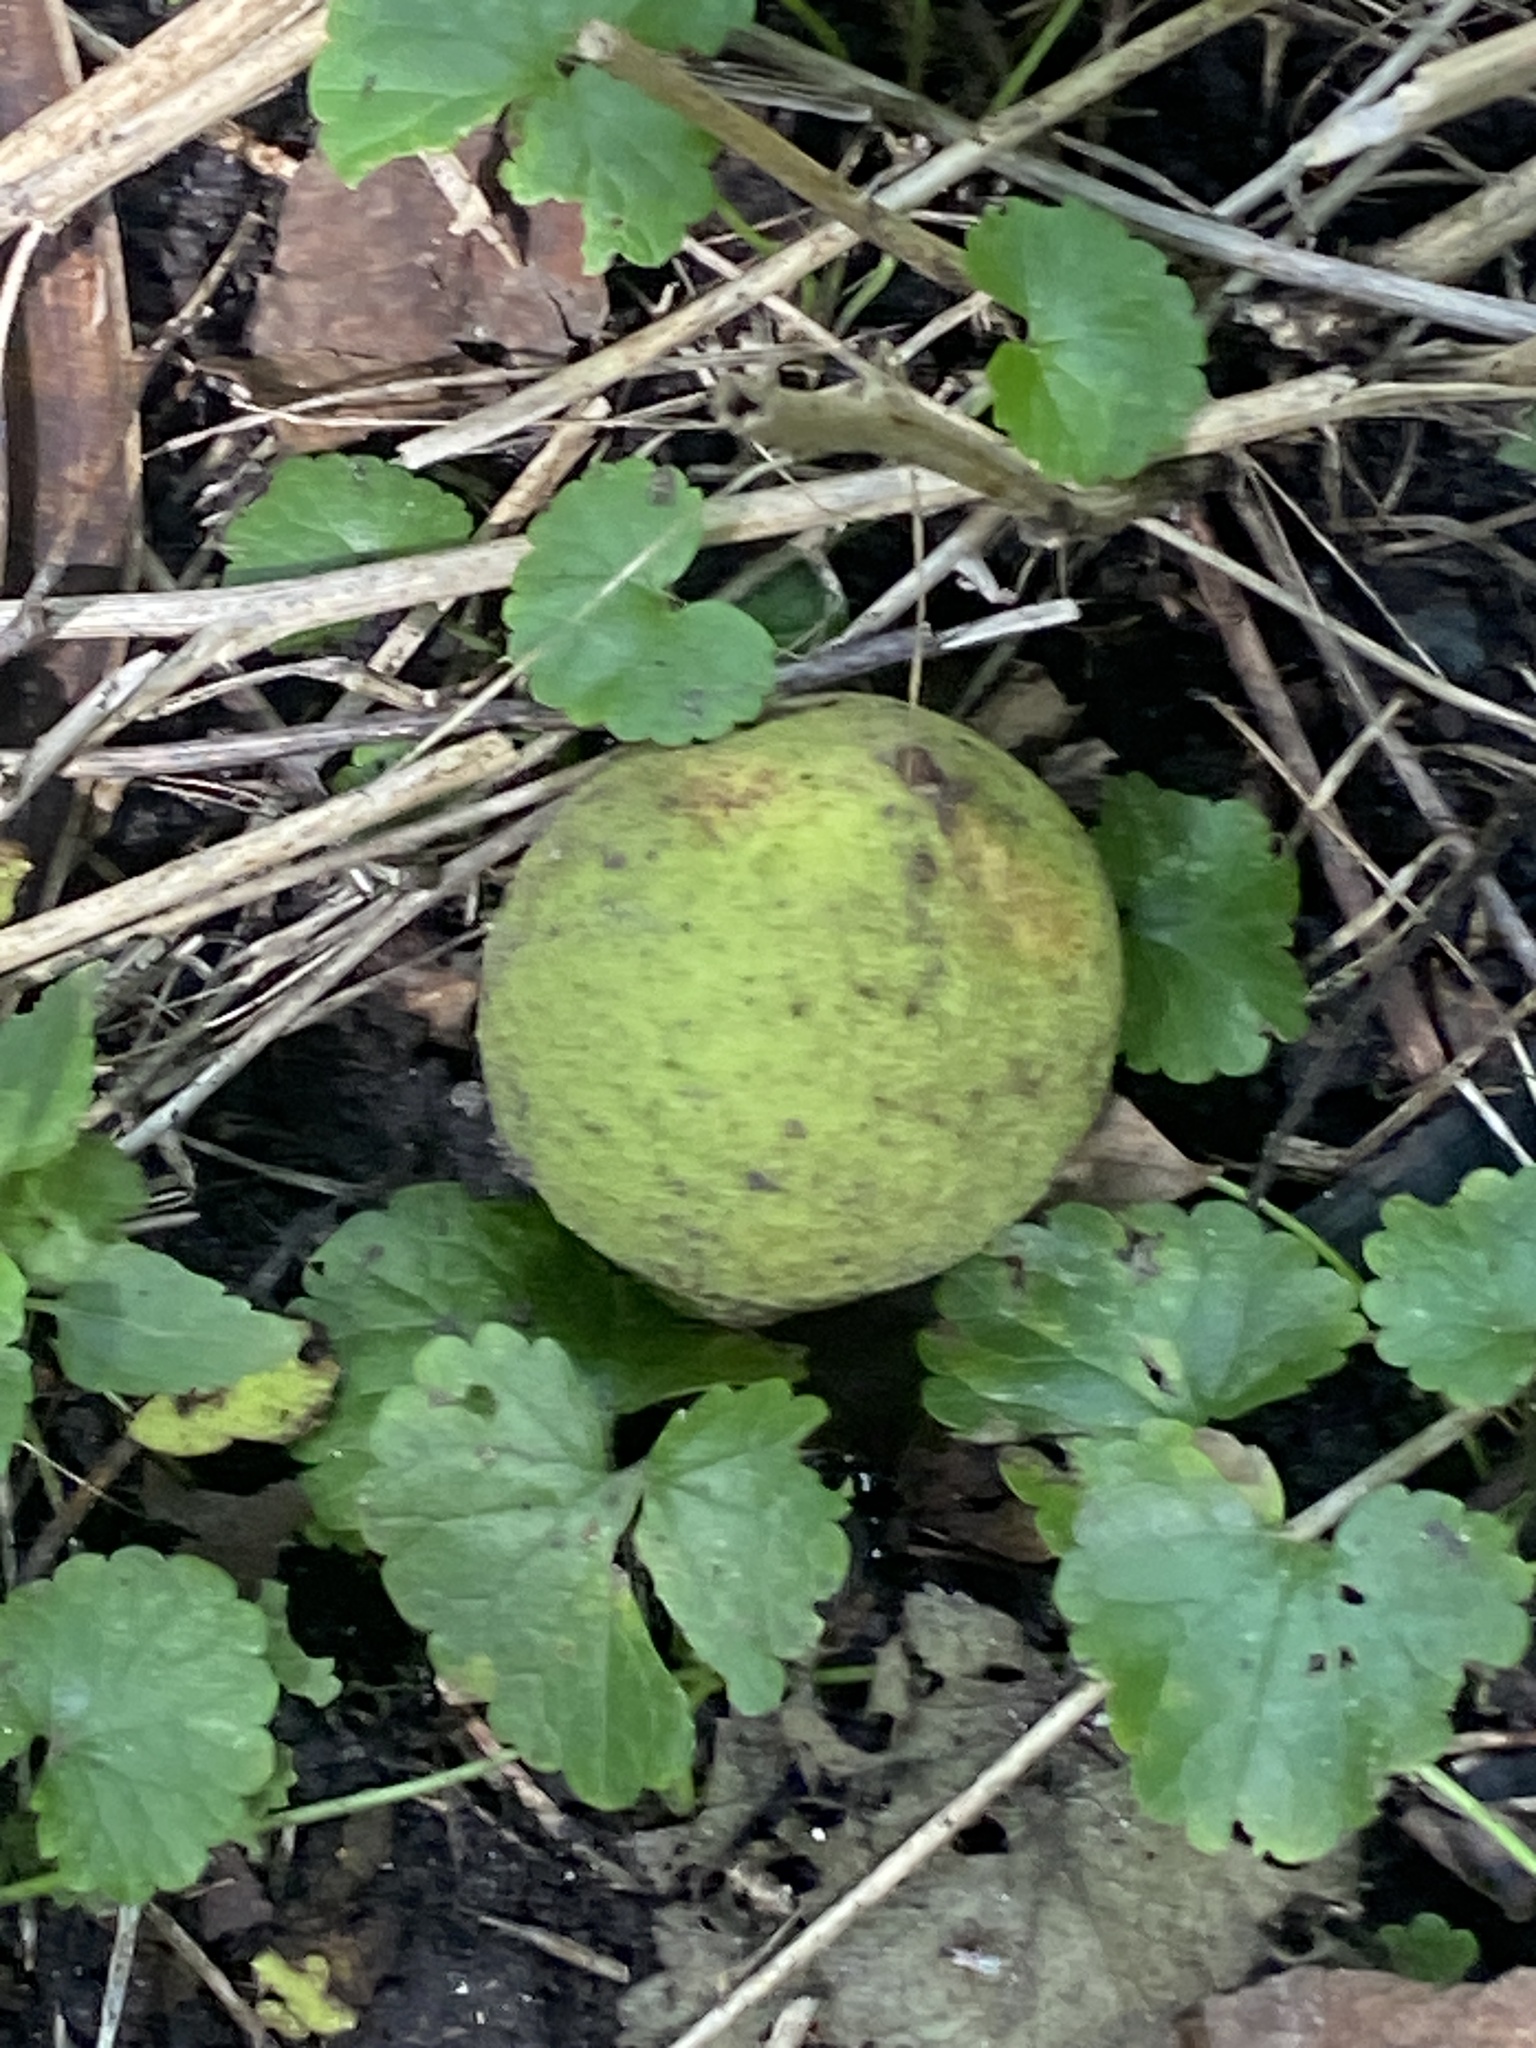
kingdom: Plantae
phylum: Tracheophyta
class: Magnoliopsida
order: Fagales
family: Juglandaceae
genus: Juglans
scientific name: Juglans nigra
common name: Black walnut
